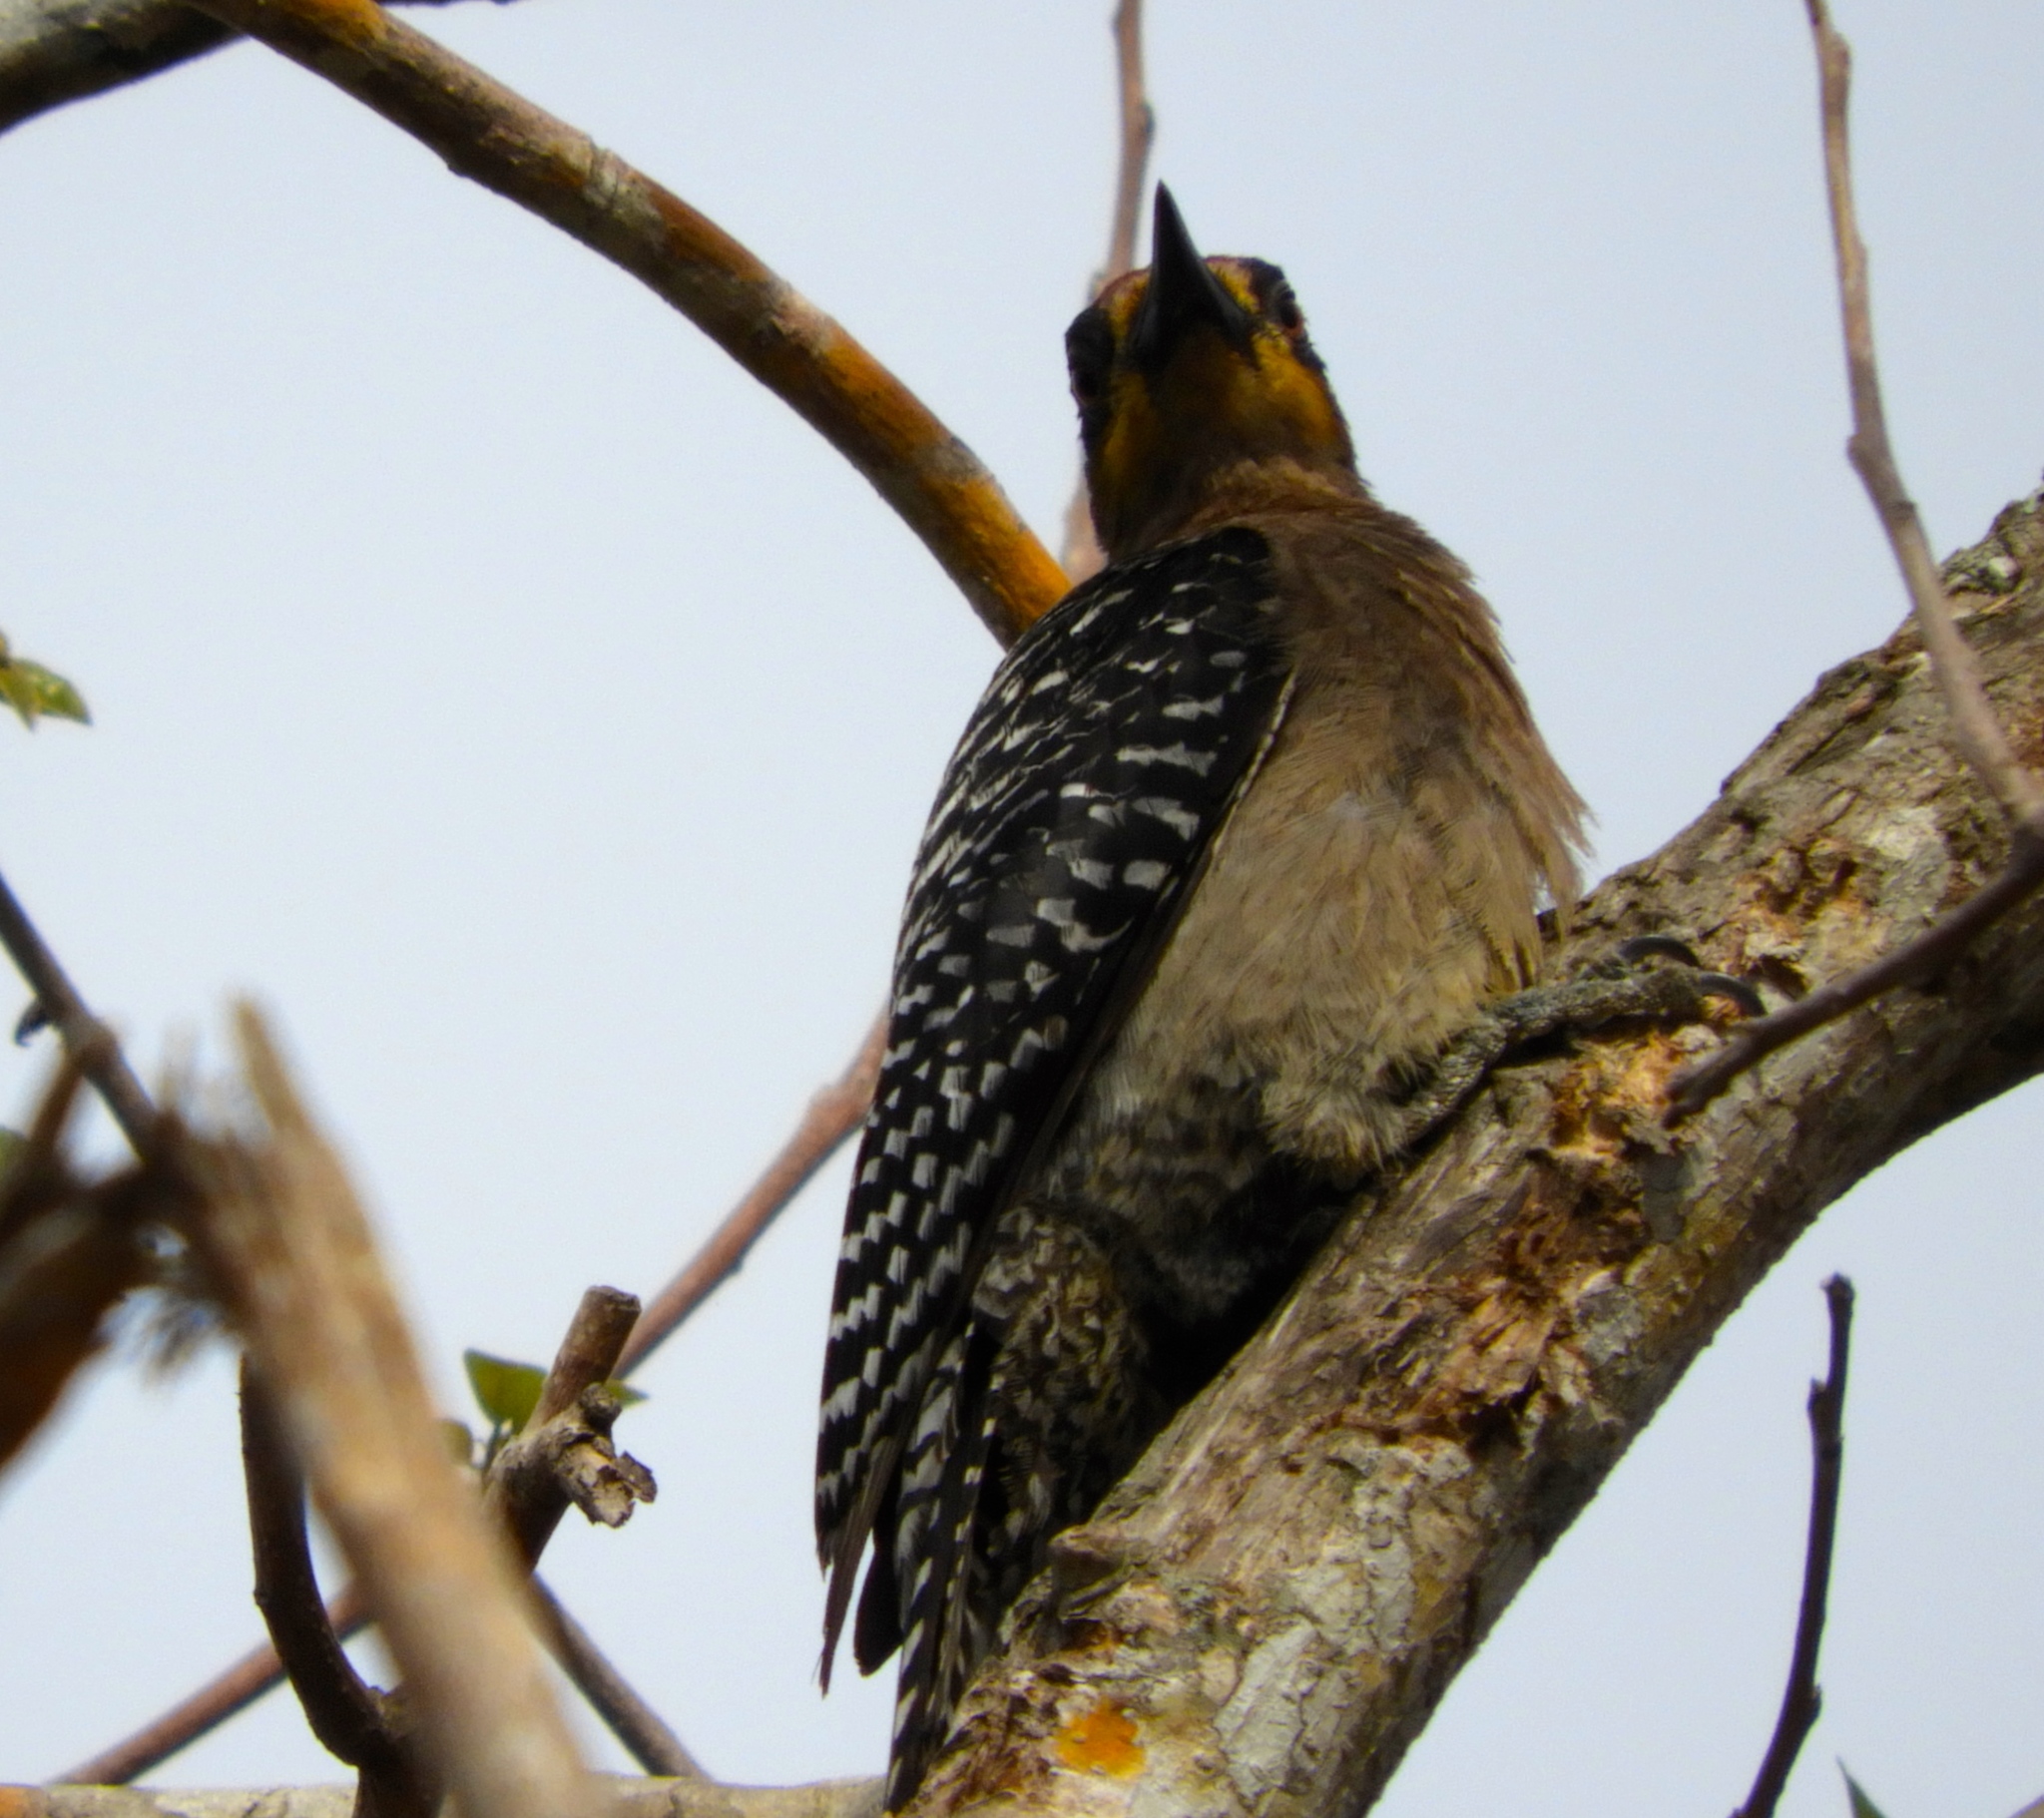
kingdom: Animalia
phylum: Chordata
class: Aves
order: Piciformes
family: Picidae
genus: Melanerpes
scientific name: Melanerpes chrysogenys
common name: Golden-cheeked woodpecker
